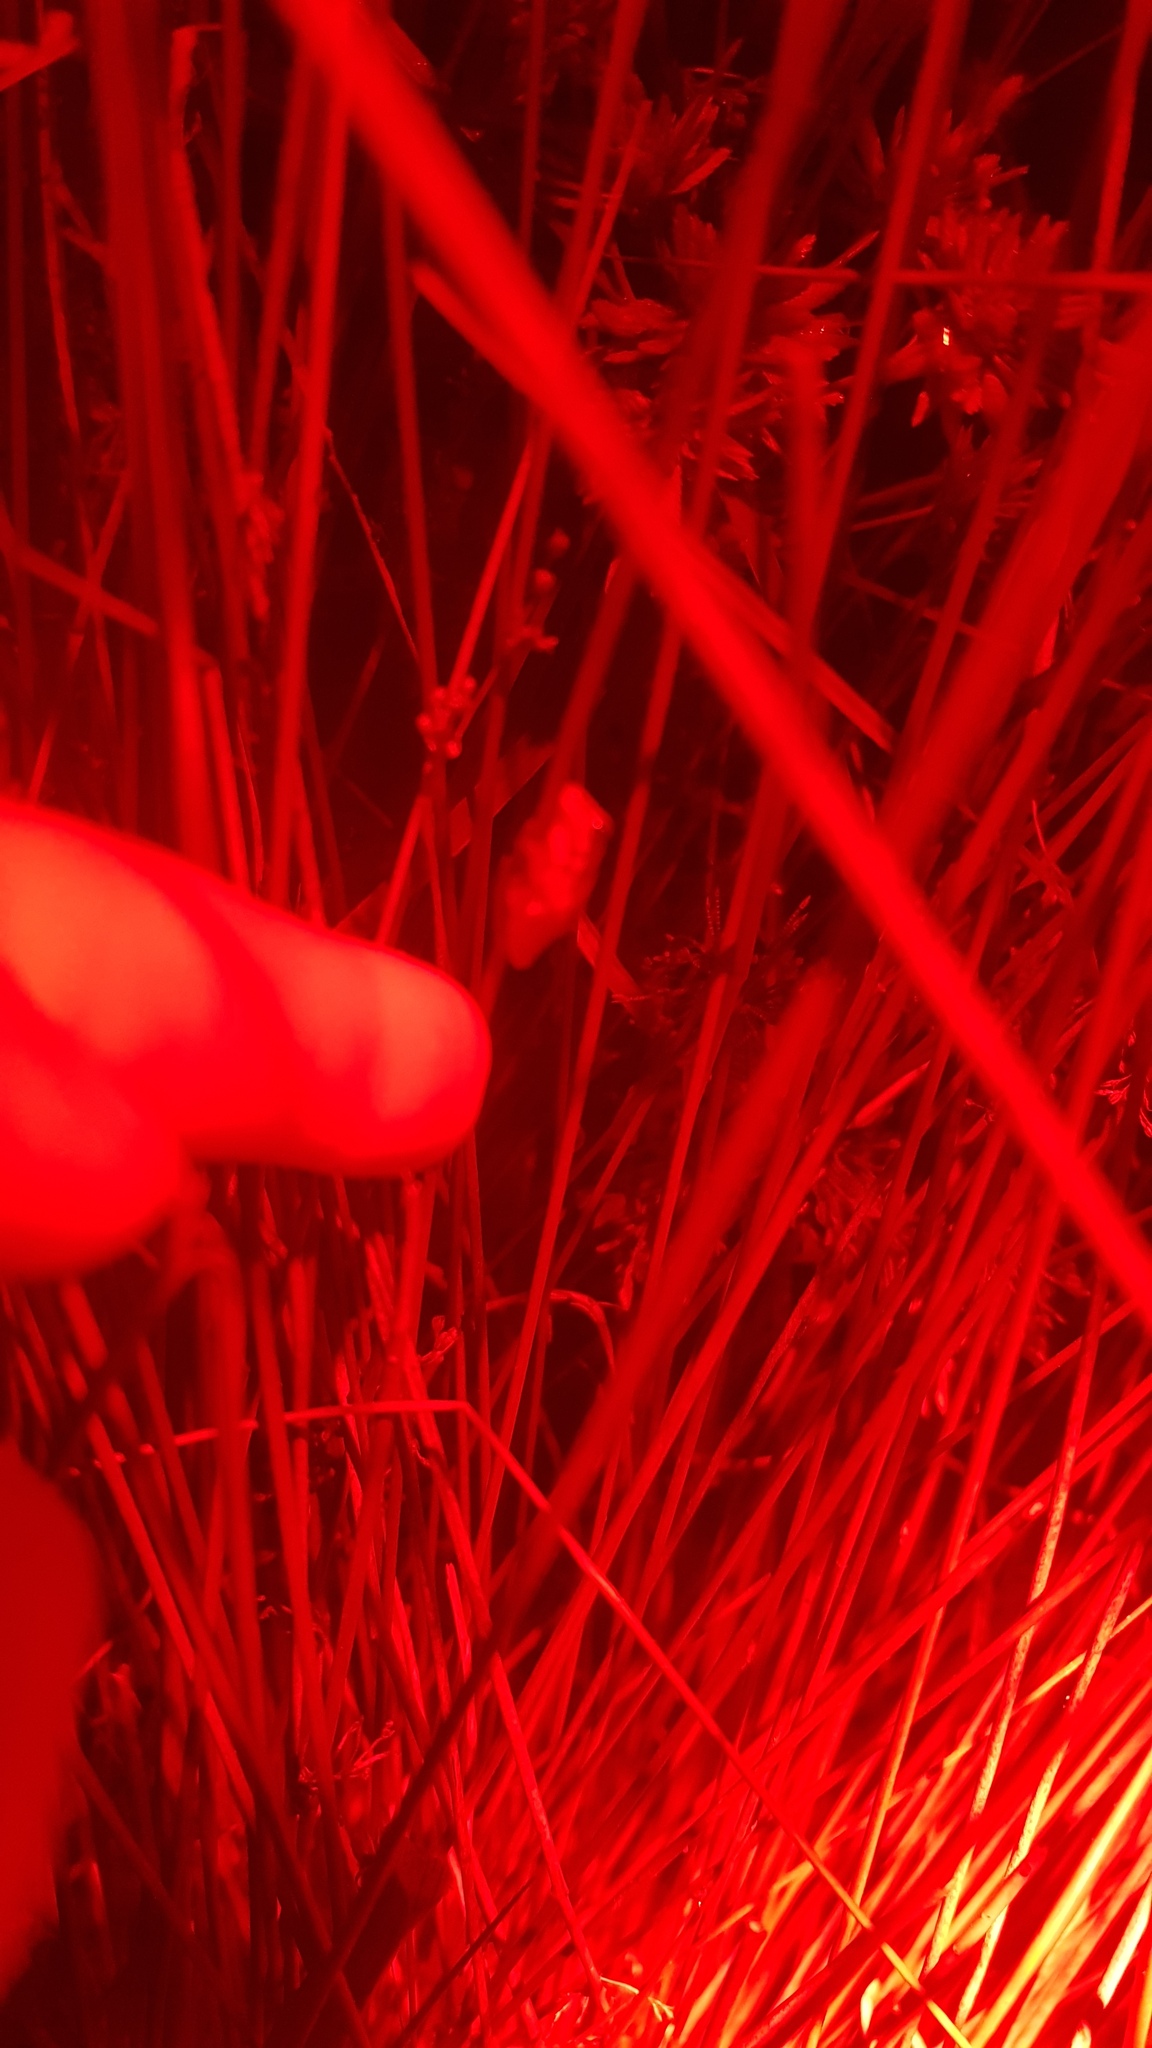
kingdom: Animalia
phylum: Chordata
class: Amphibia
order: Anura
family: Pelodryadidae
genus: Litoria
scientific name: Litoria fallax
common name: Eastern dwarf treefrog
